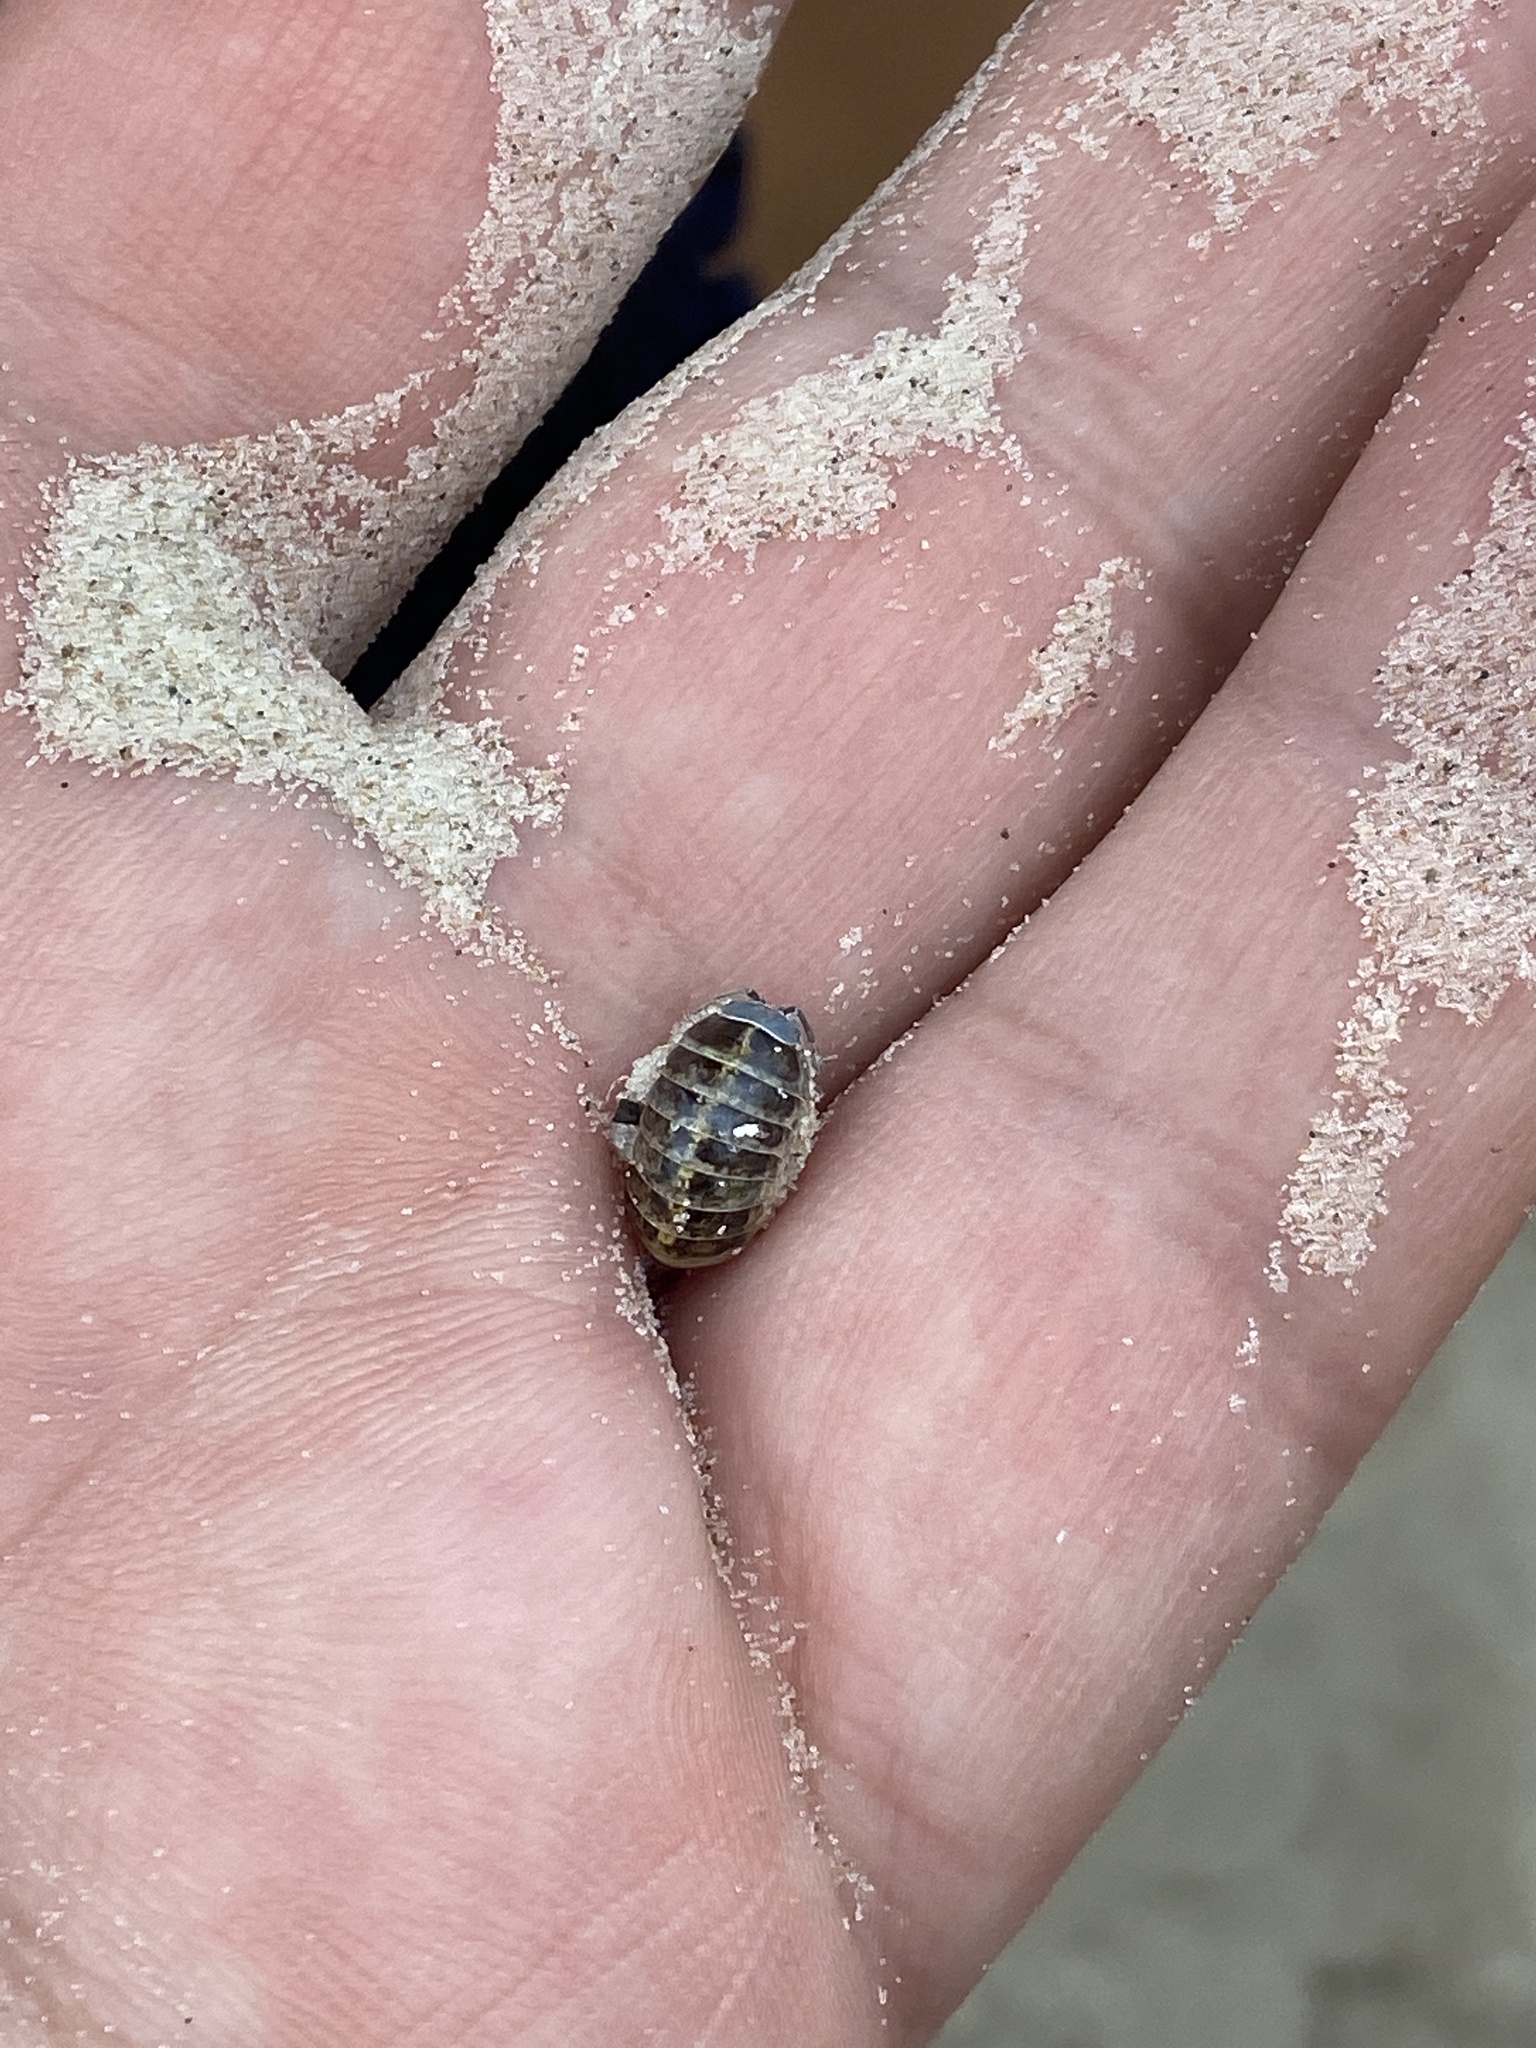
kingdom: Animalia
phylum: Arthropoda
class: Malacostraca
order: Isopoda
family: Armadillidiidae
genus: Armadillidium
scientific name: Armadillidium vulgare
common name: Common pill woodlouse
